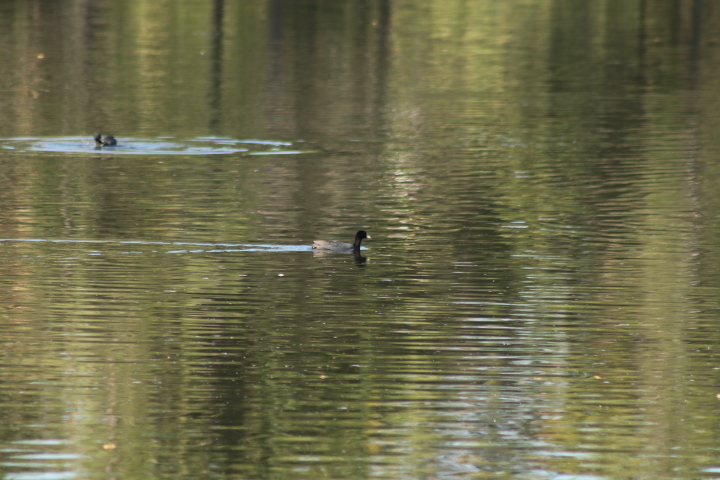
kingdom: Animalia
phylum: Chordata
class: Aves
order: Gruiformes
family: Rallidae
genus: Fulica
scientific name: Fulica americana
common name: American coot
